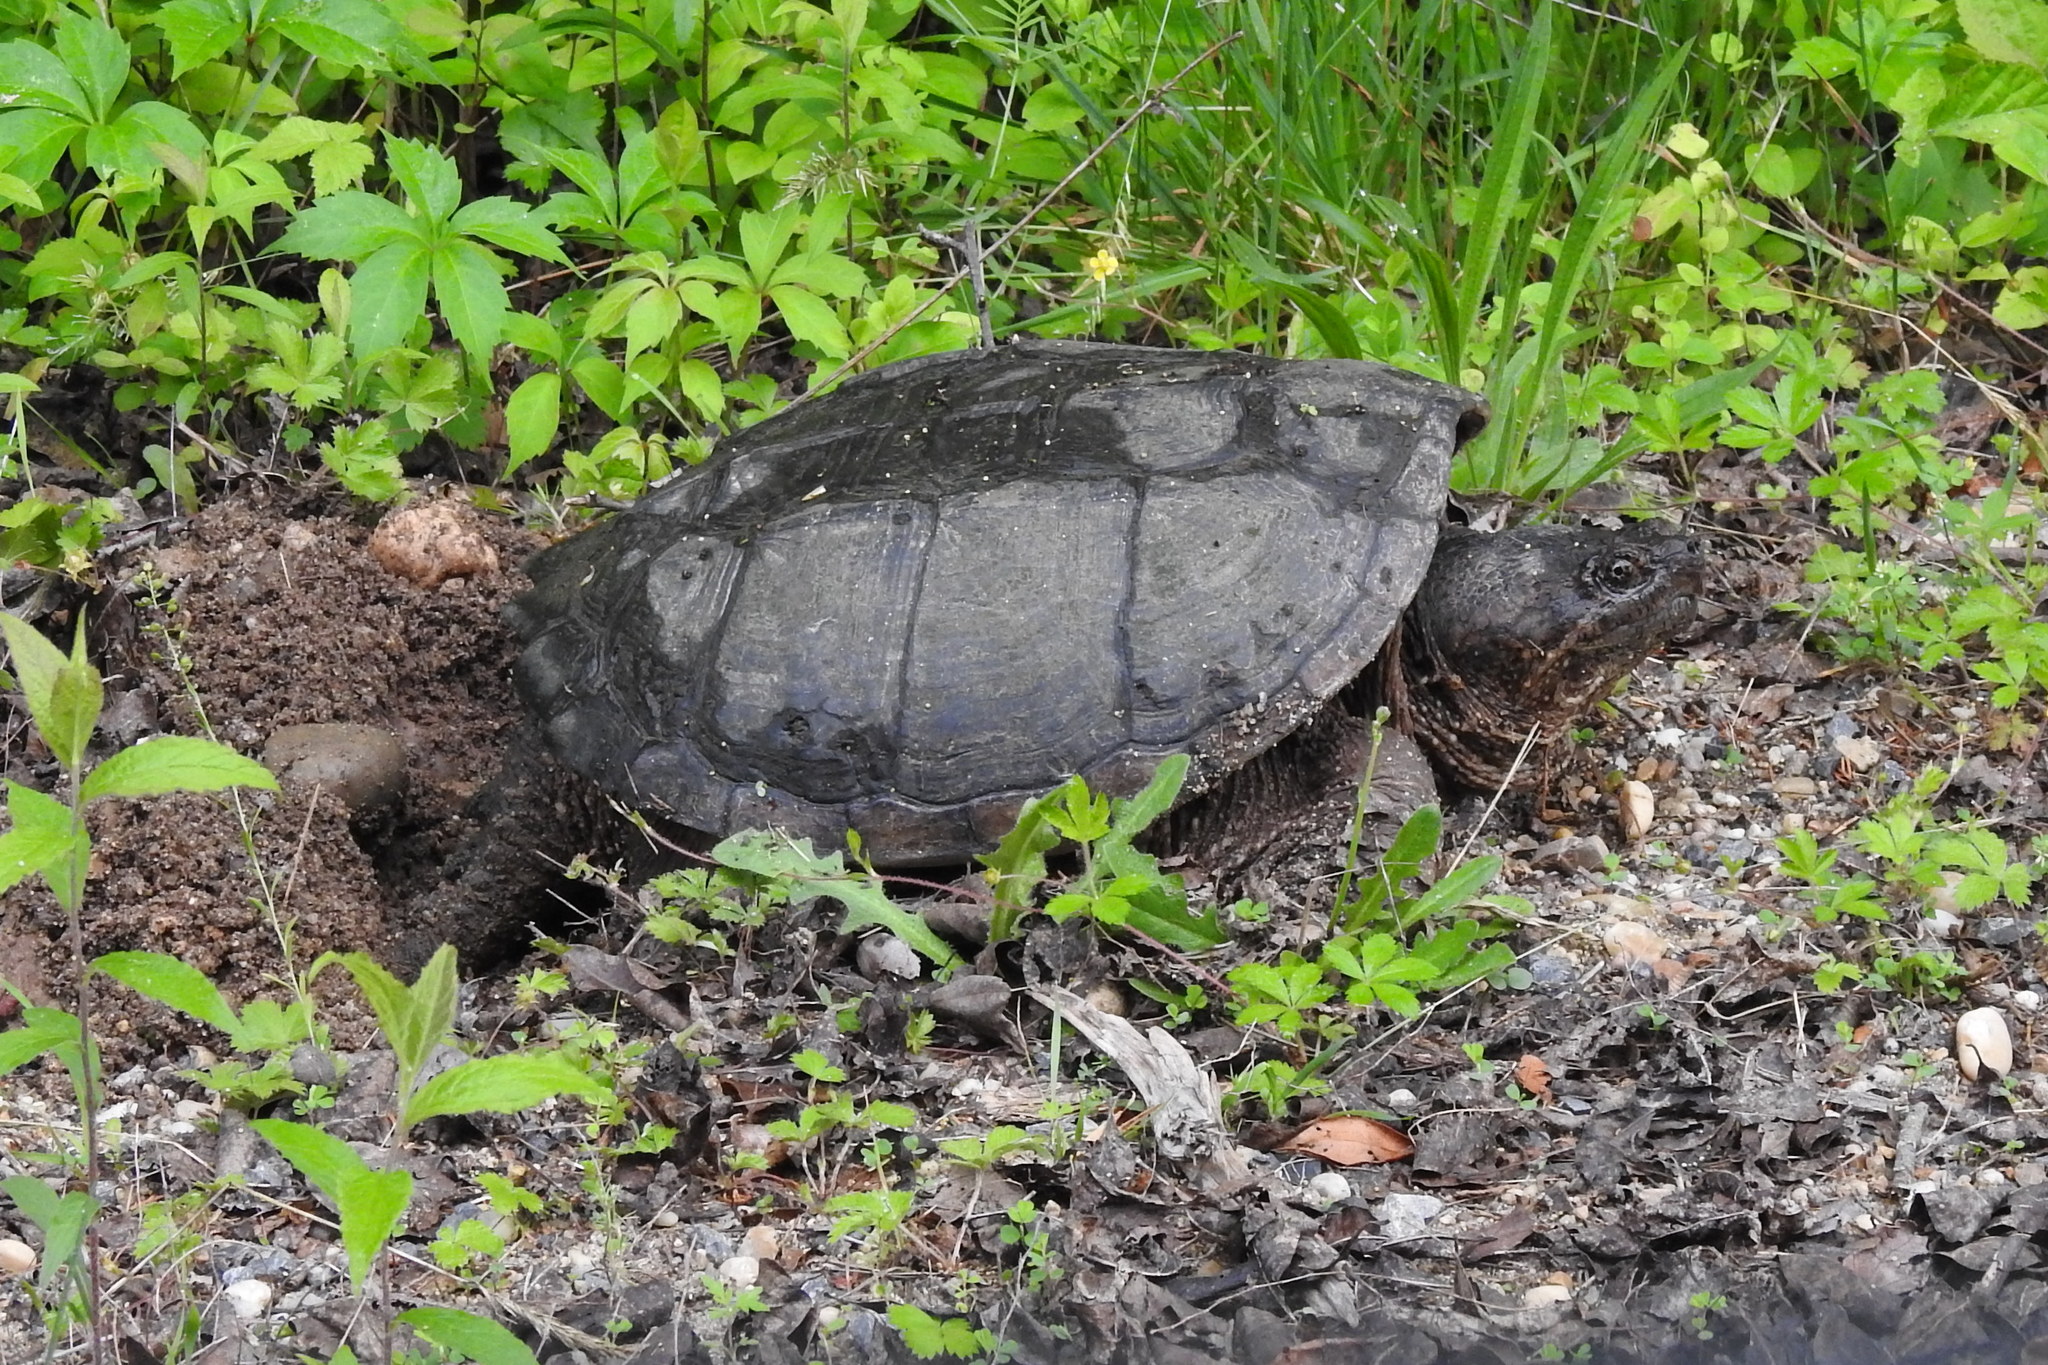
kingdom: Animalia
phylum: Chordata
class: Testudines
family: Chelydridae
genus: Chelydra
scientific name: Chelydra serpentina
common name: Common snapping turtle
